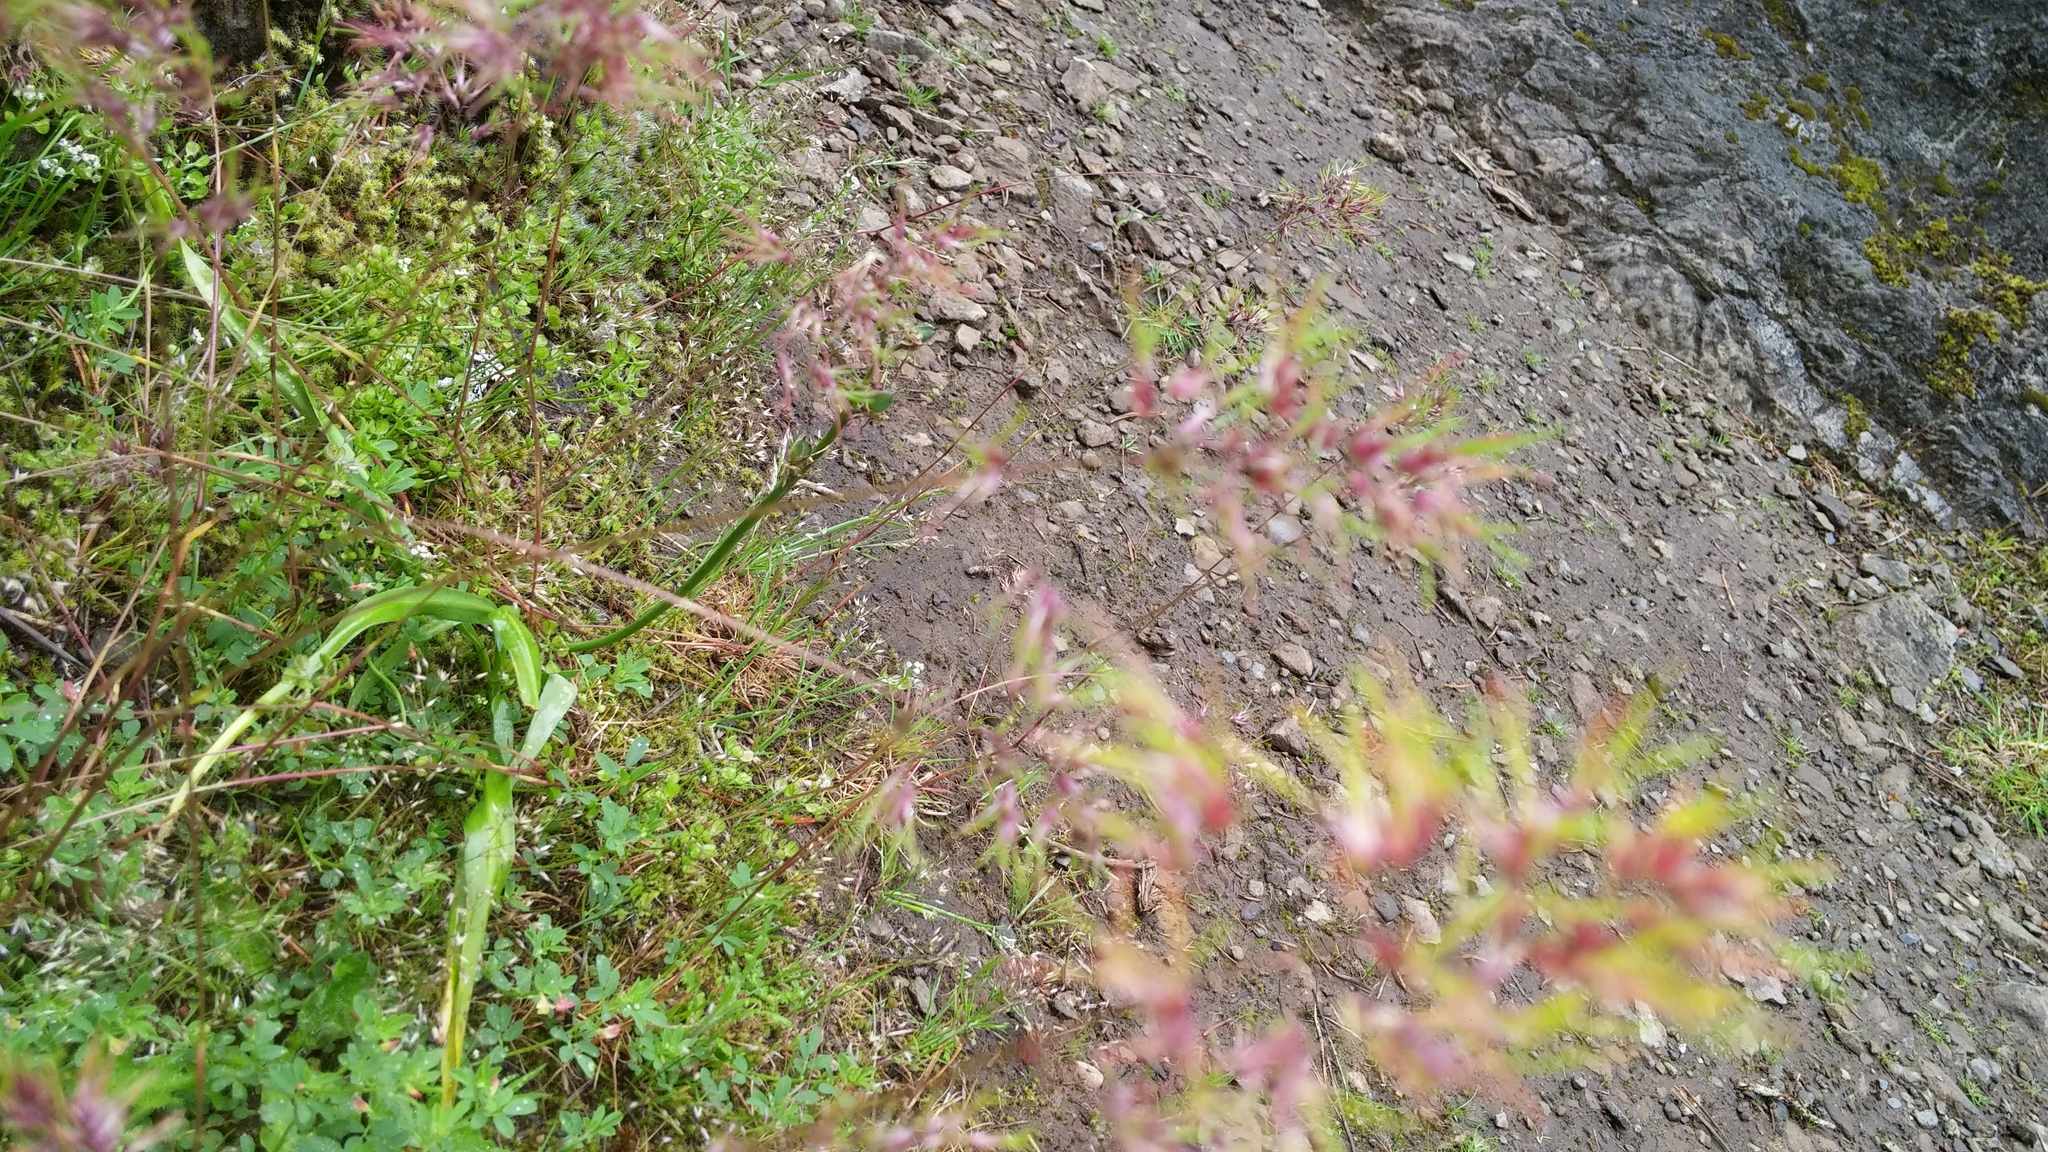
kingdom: Plantae
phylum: Tracheophyta
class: Liliopsida
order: Poales
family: Poaceae
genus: Poa
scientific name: Poa bulbosa
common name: Bulbous bluegrass
